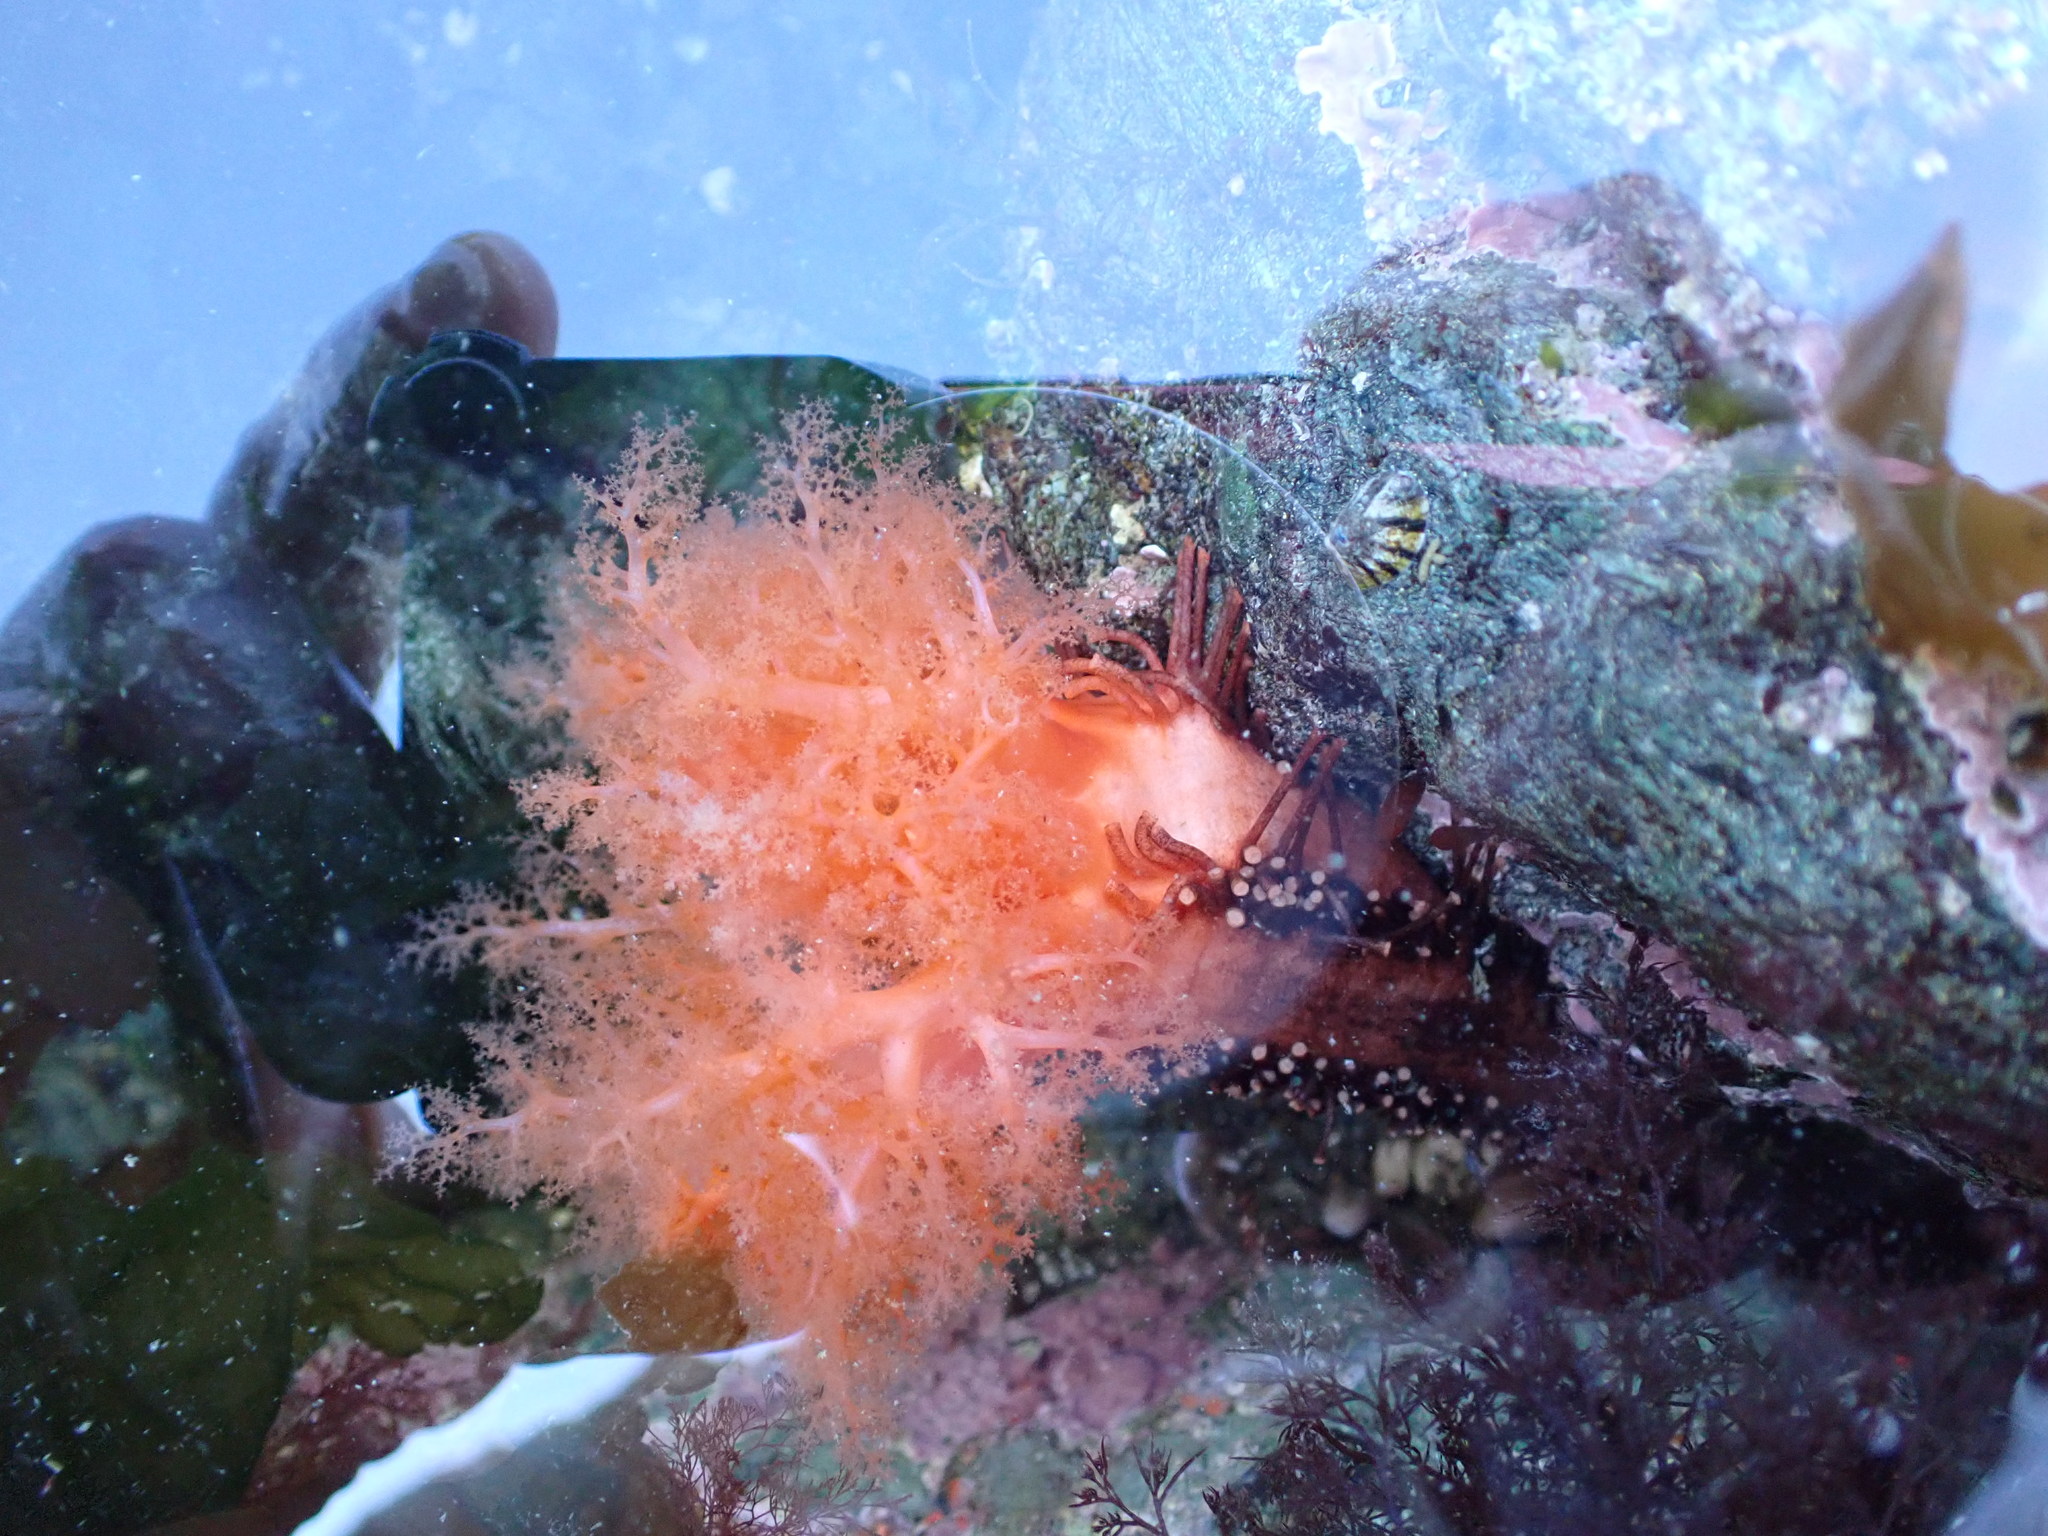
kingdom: Animalia
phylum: Echinodermata
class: Holothuroidea
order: Dendrochirotida
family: Cucumariidae
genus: Cucumaria
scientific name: Cucumaria miniata
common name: Orange sea cucumber
